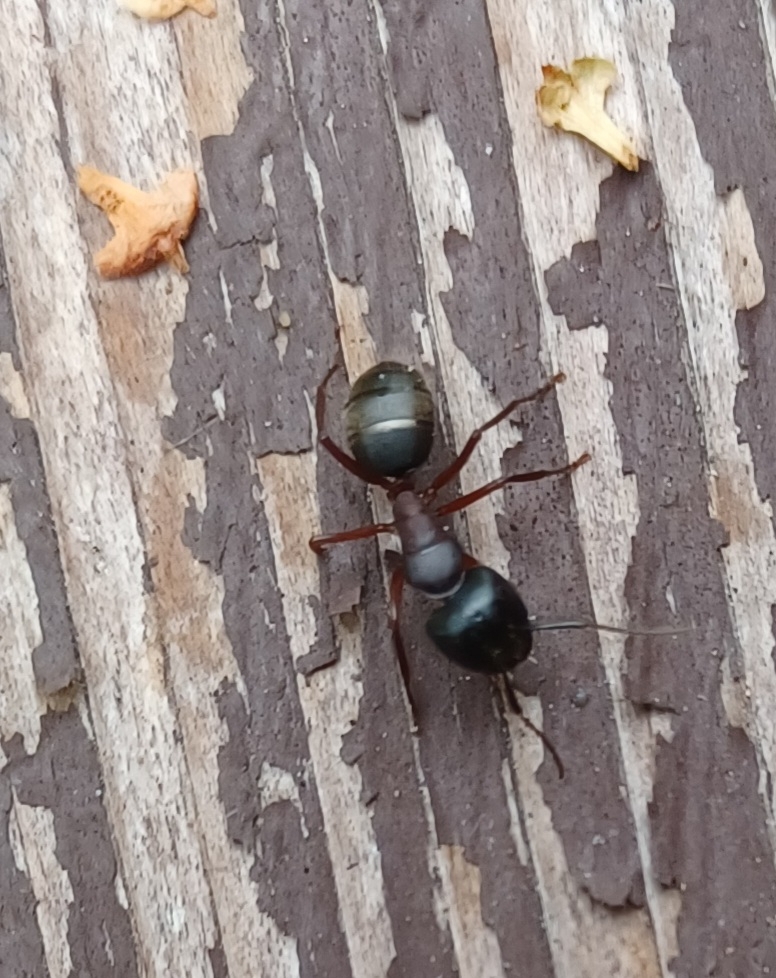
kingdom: Animalia
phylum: Arthropoda
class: Insecta
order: Hymenoptera
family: Formicidae
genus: Camponotus
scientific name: Camponotus herculeanus
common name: Hercules ant
